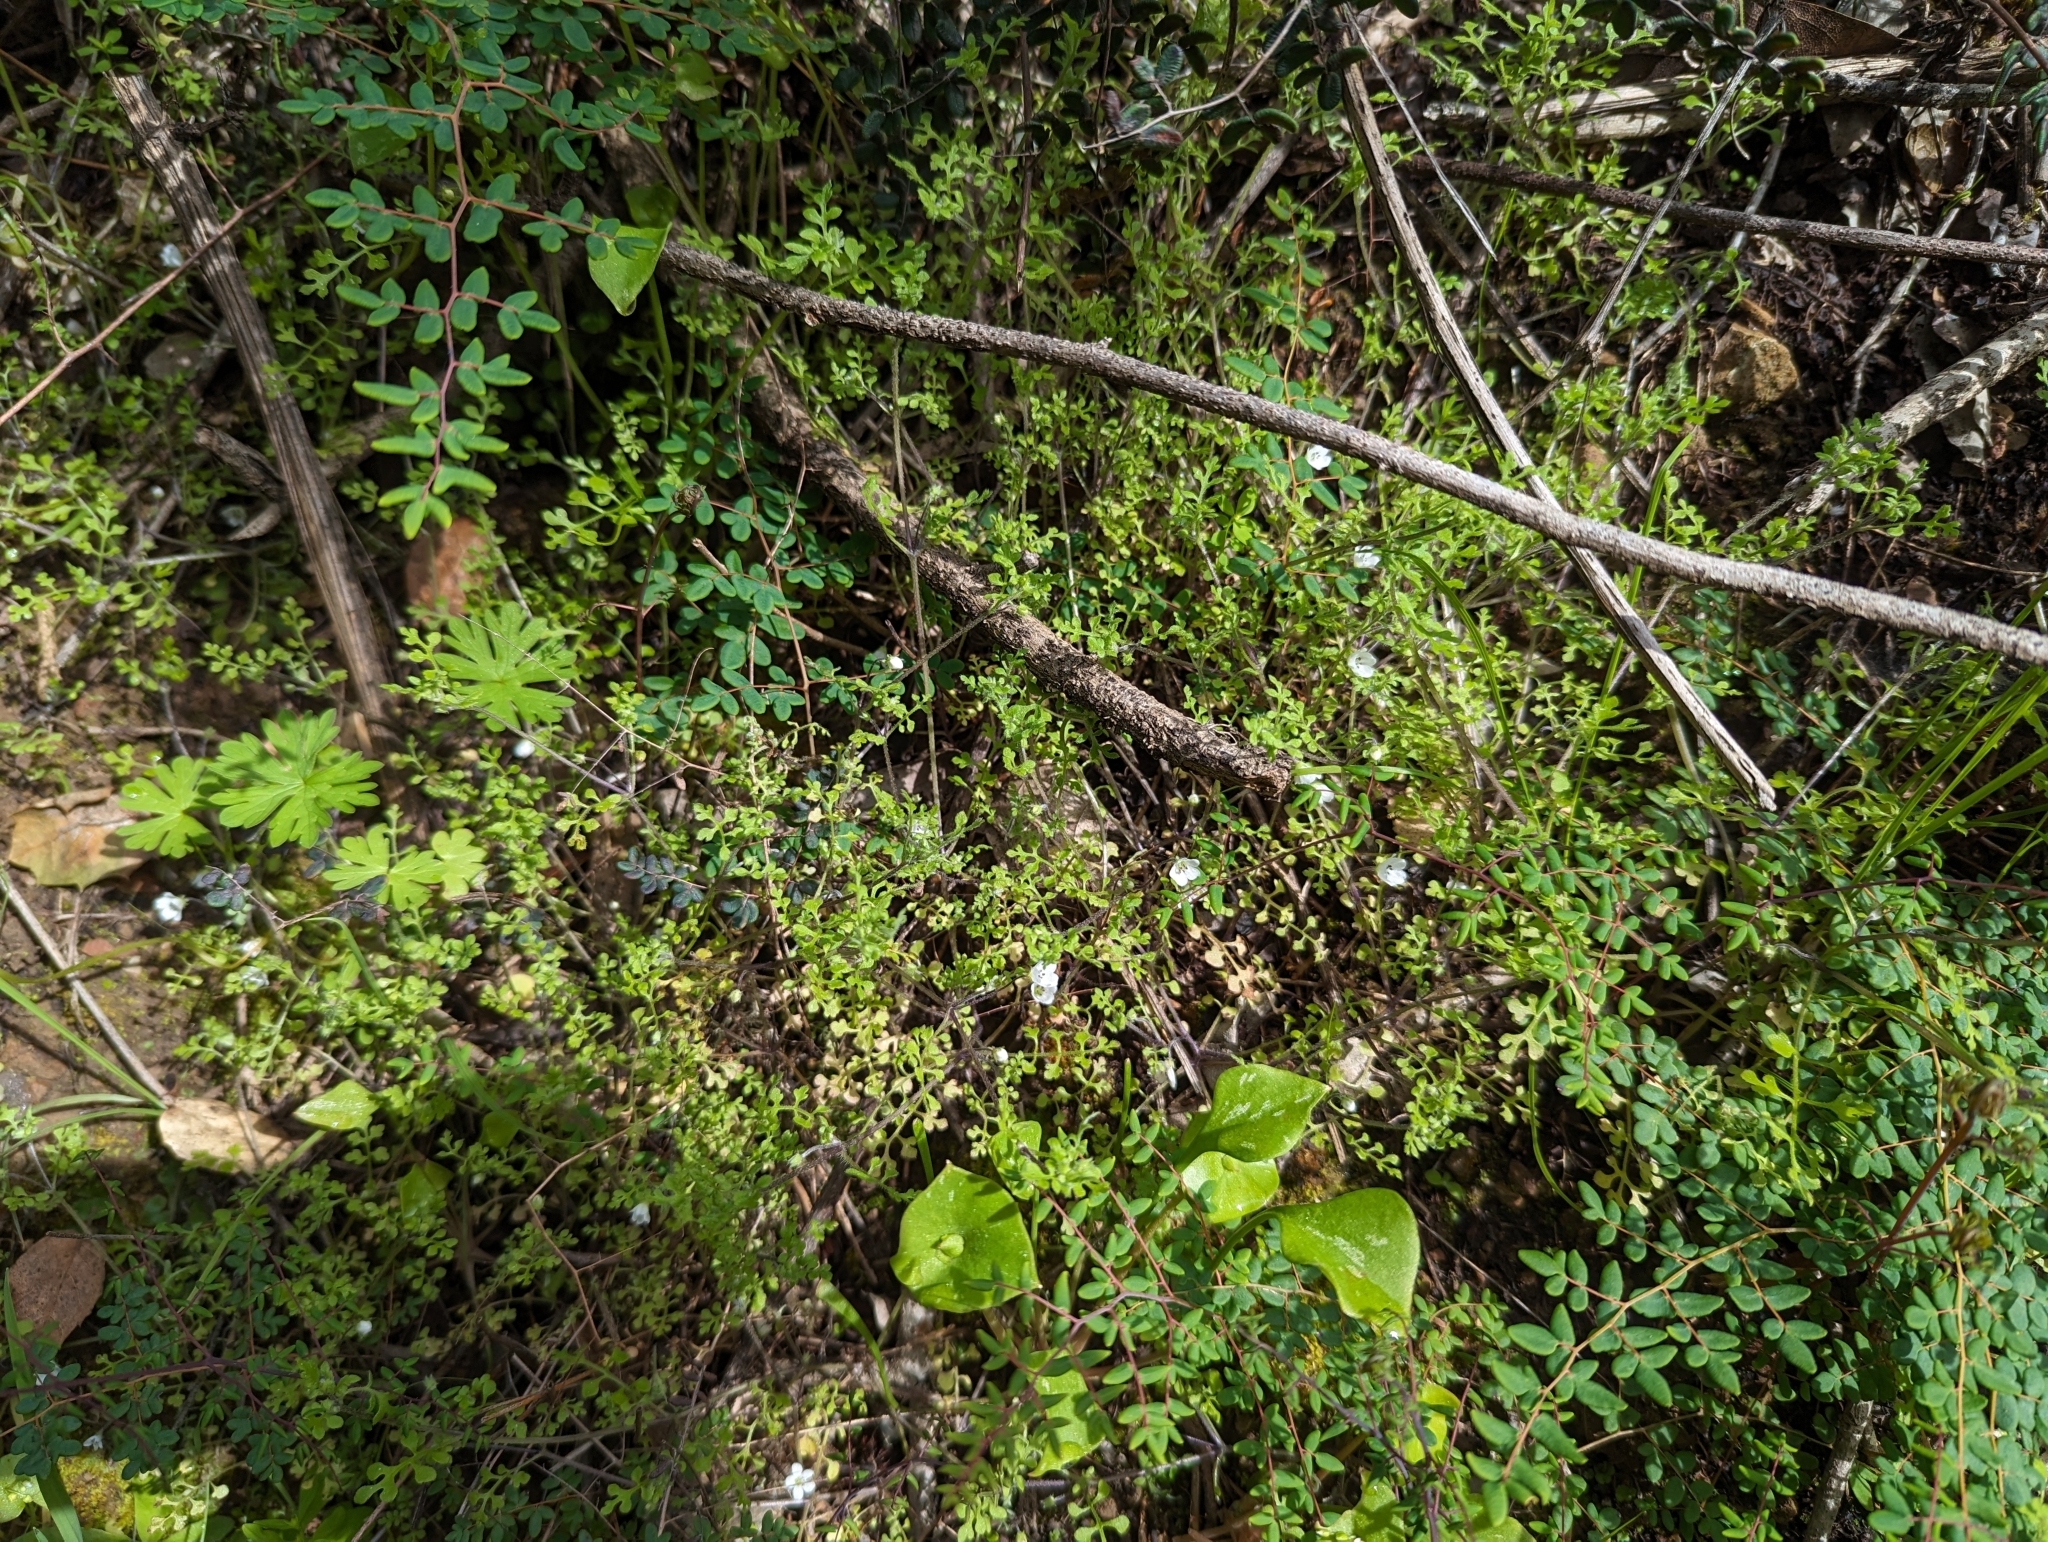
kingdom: Plantae
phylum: Tracheophyta
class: Magnoliopsida
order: Boraginales
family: Hydrophyllaceae
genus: Nemophila
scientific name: Nemophila heterophylla
